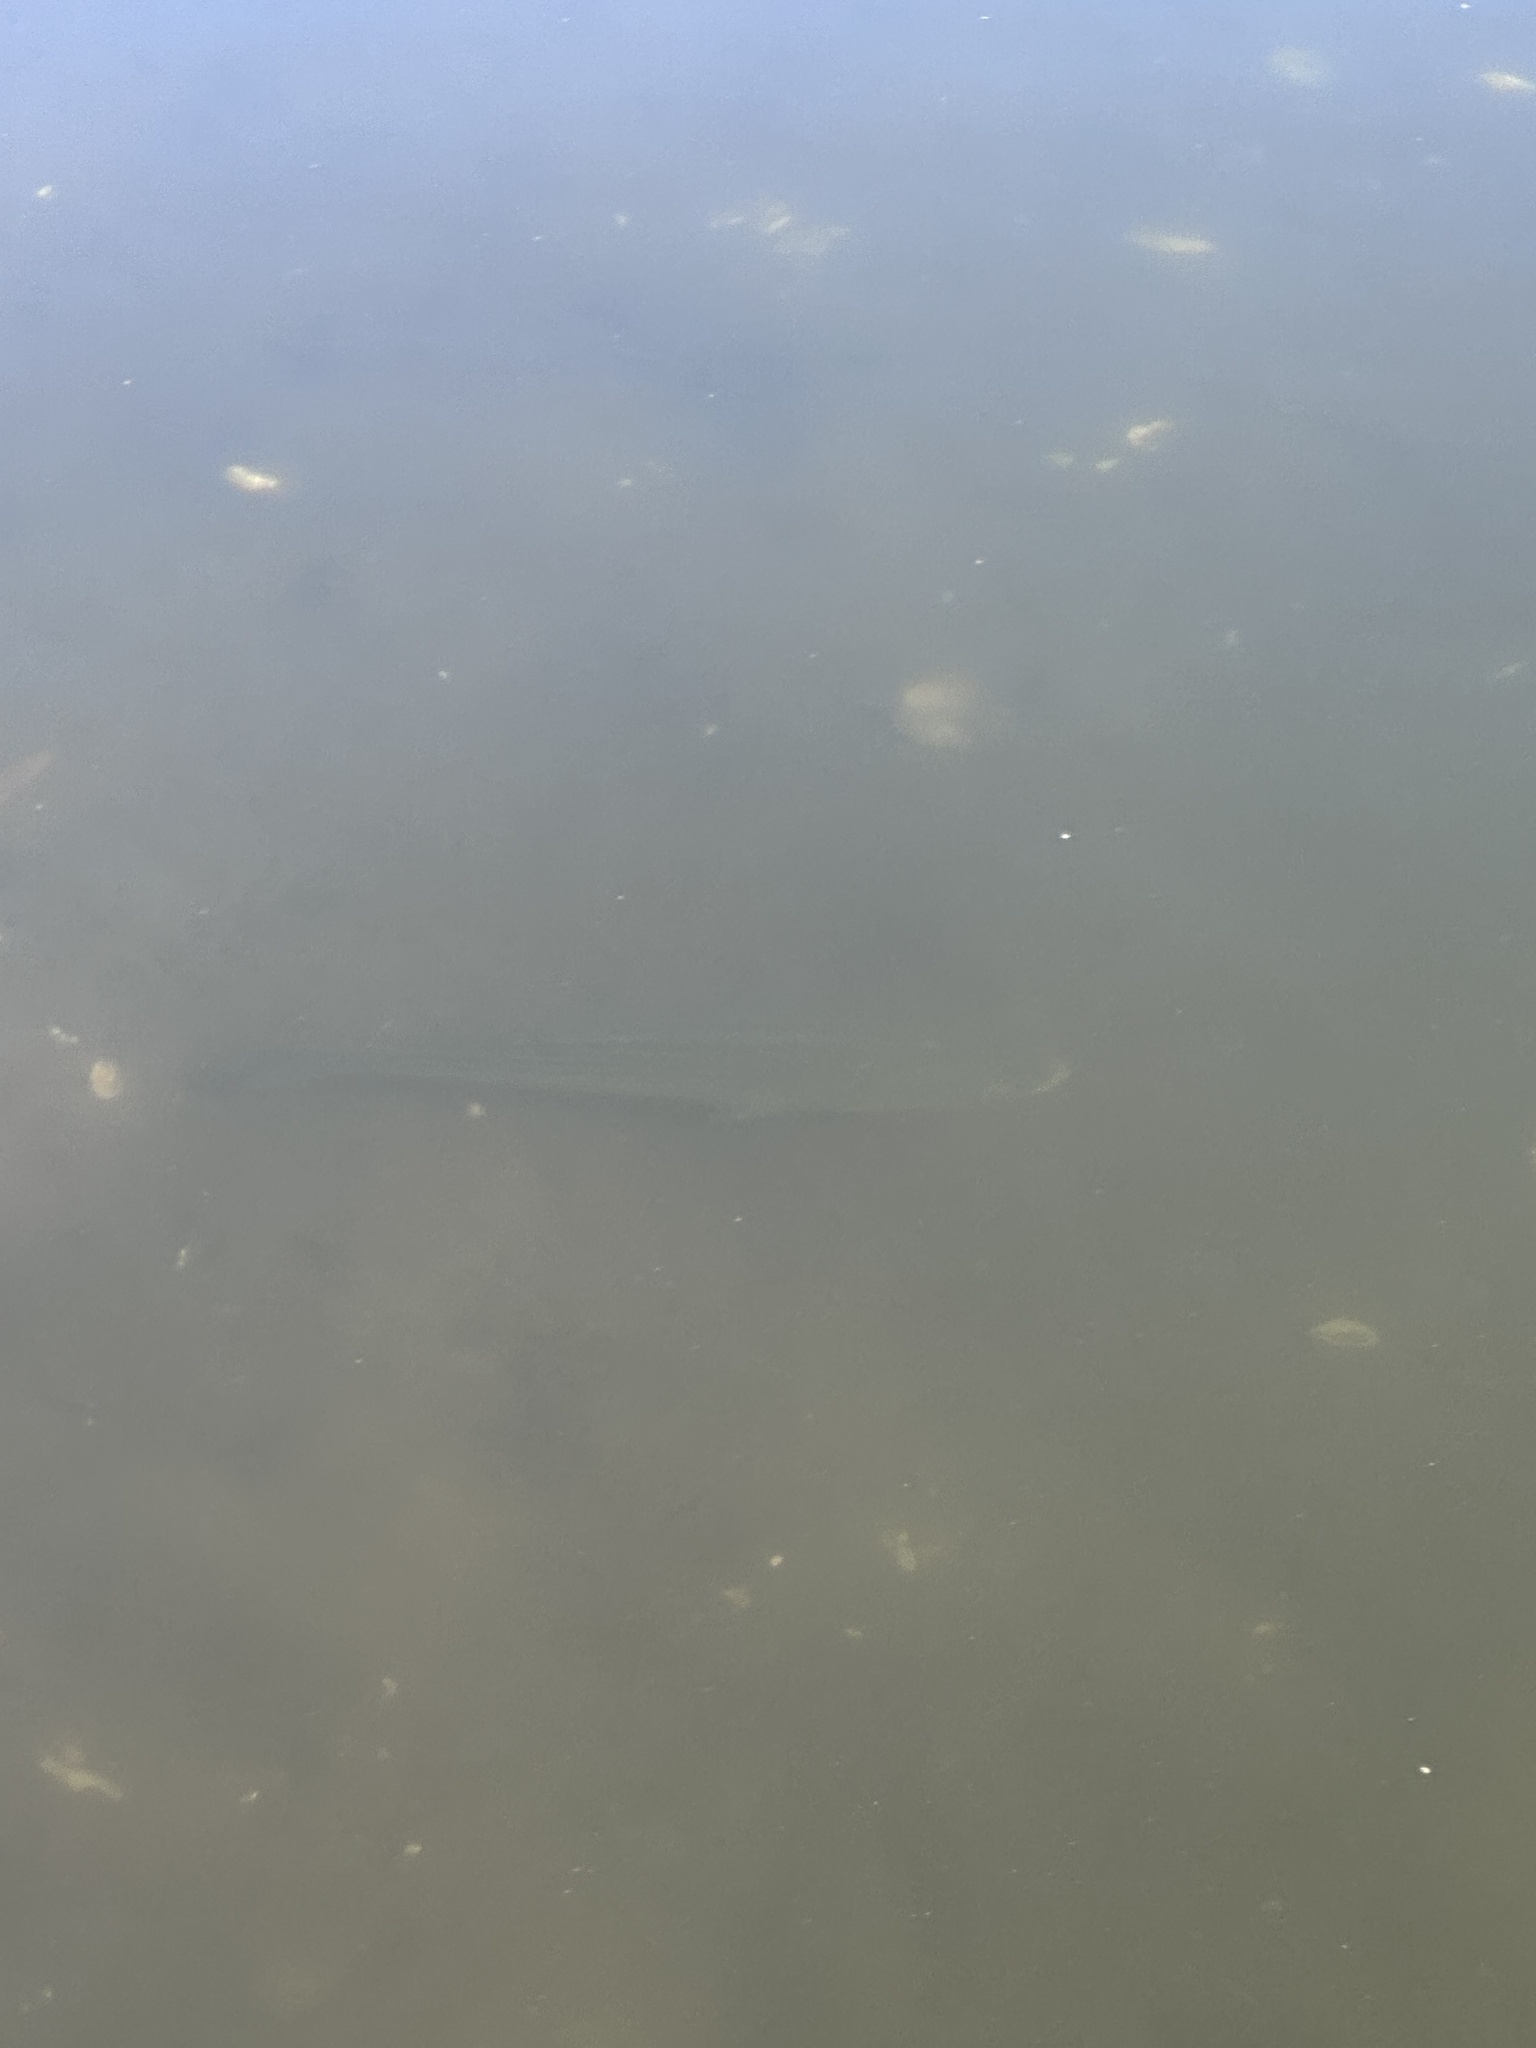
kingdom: Animalia
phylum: Chordata
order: Perciformes
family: Moronidae
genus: Morone
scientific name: Morone saxatilis
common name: Striped bass
